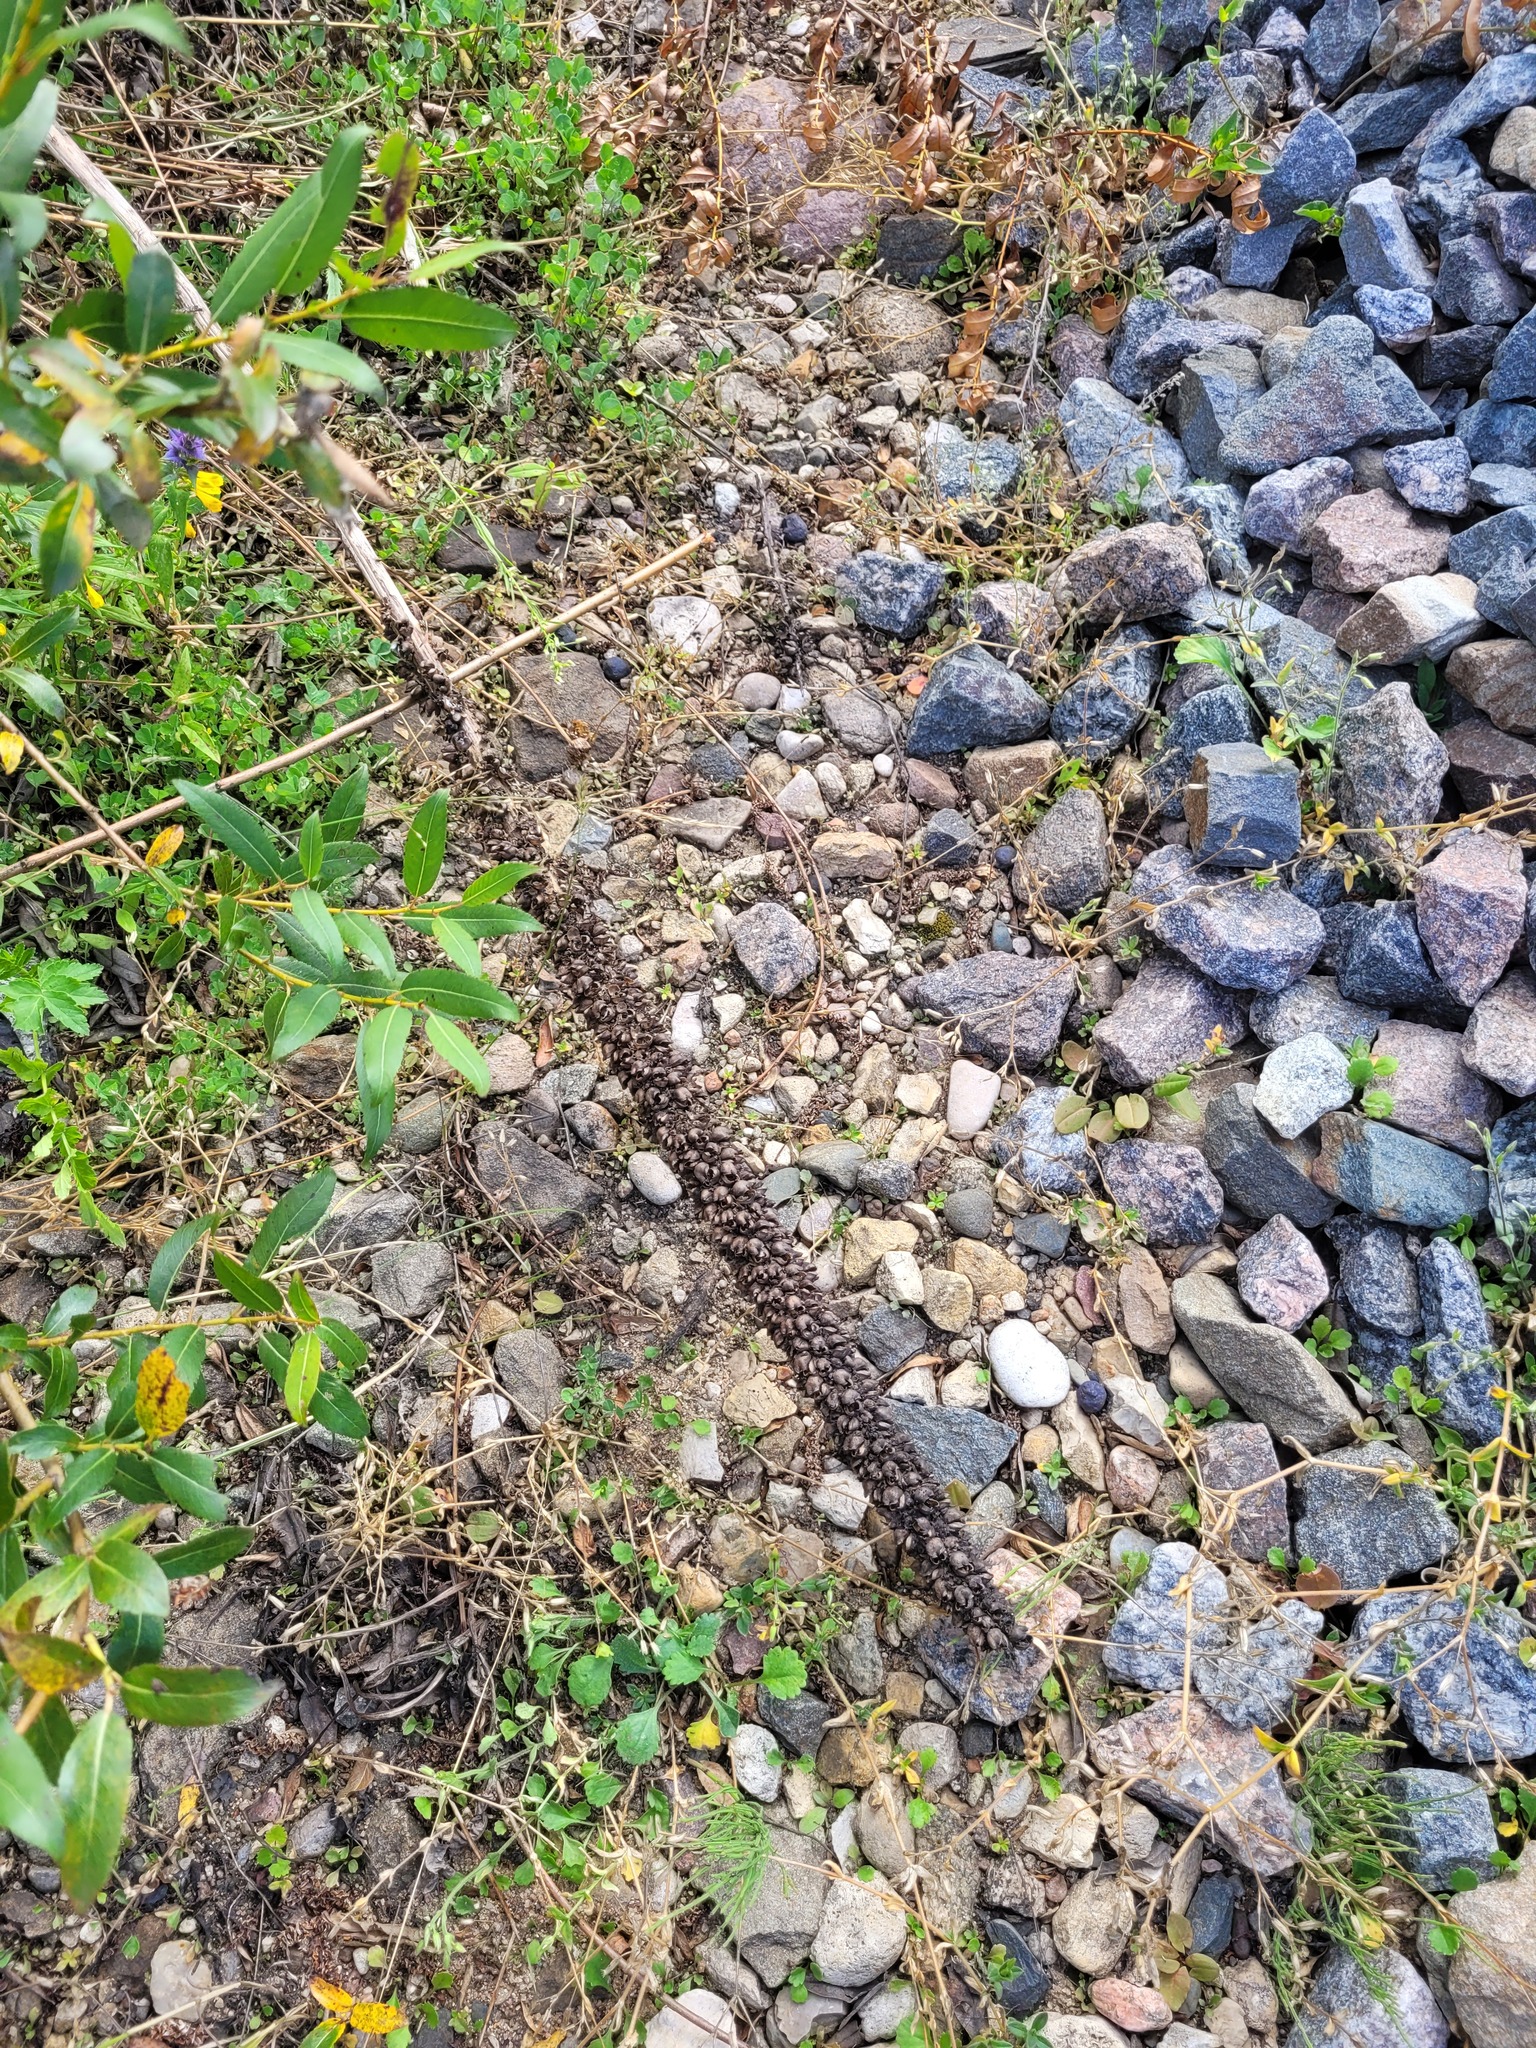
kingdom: Plantae
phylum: Tracheophyta
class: Magnoliopsida
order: Lamiales
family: Scrophulariaceae
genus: Verbascum
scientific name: Verbascum thapsus
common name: Common mullein
